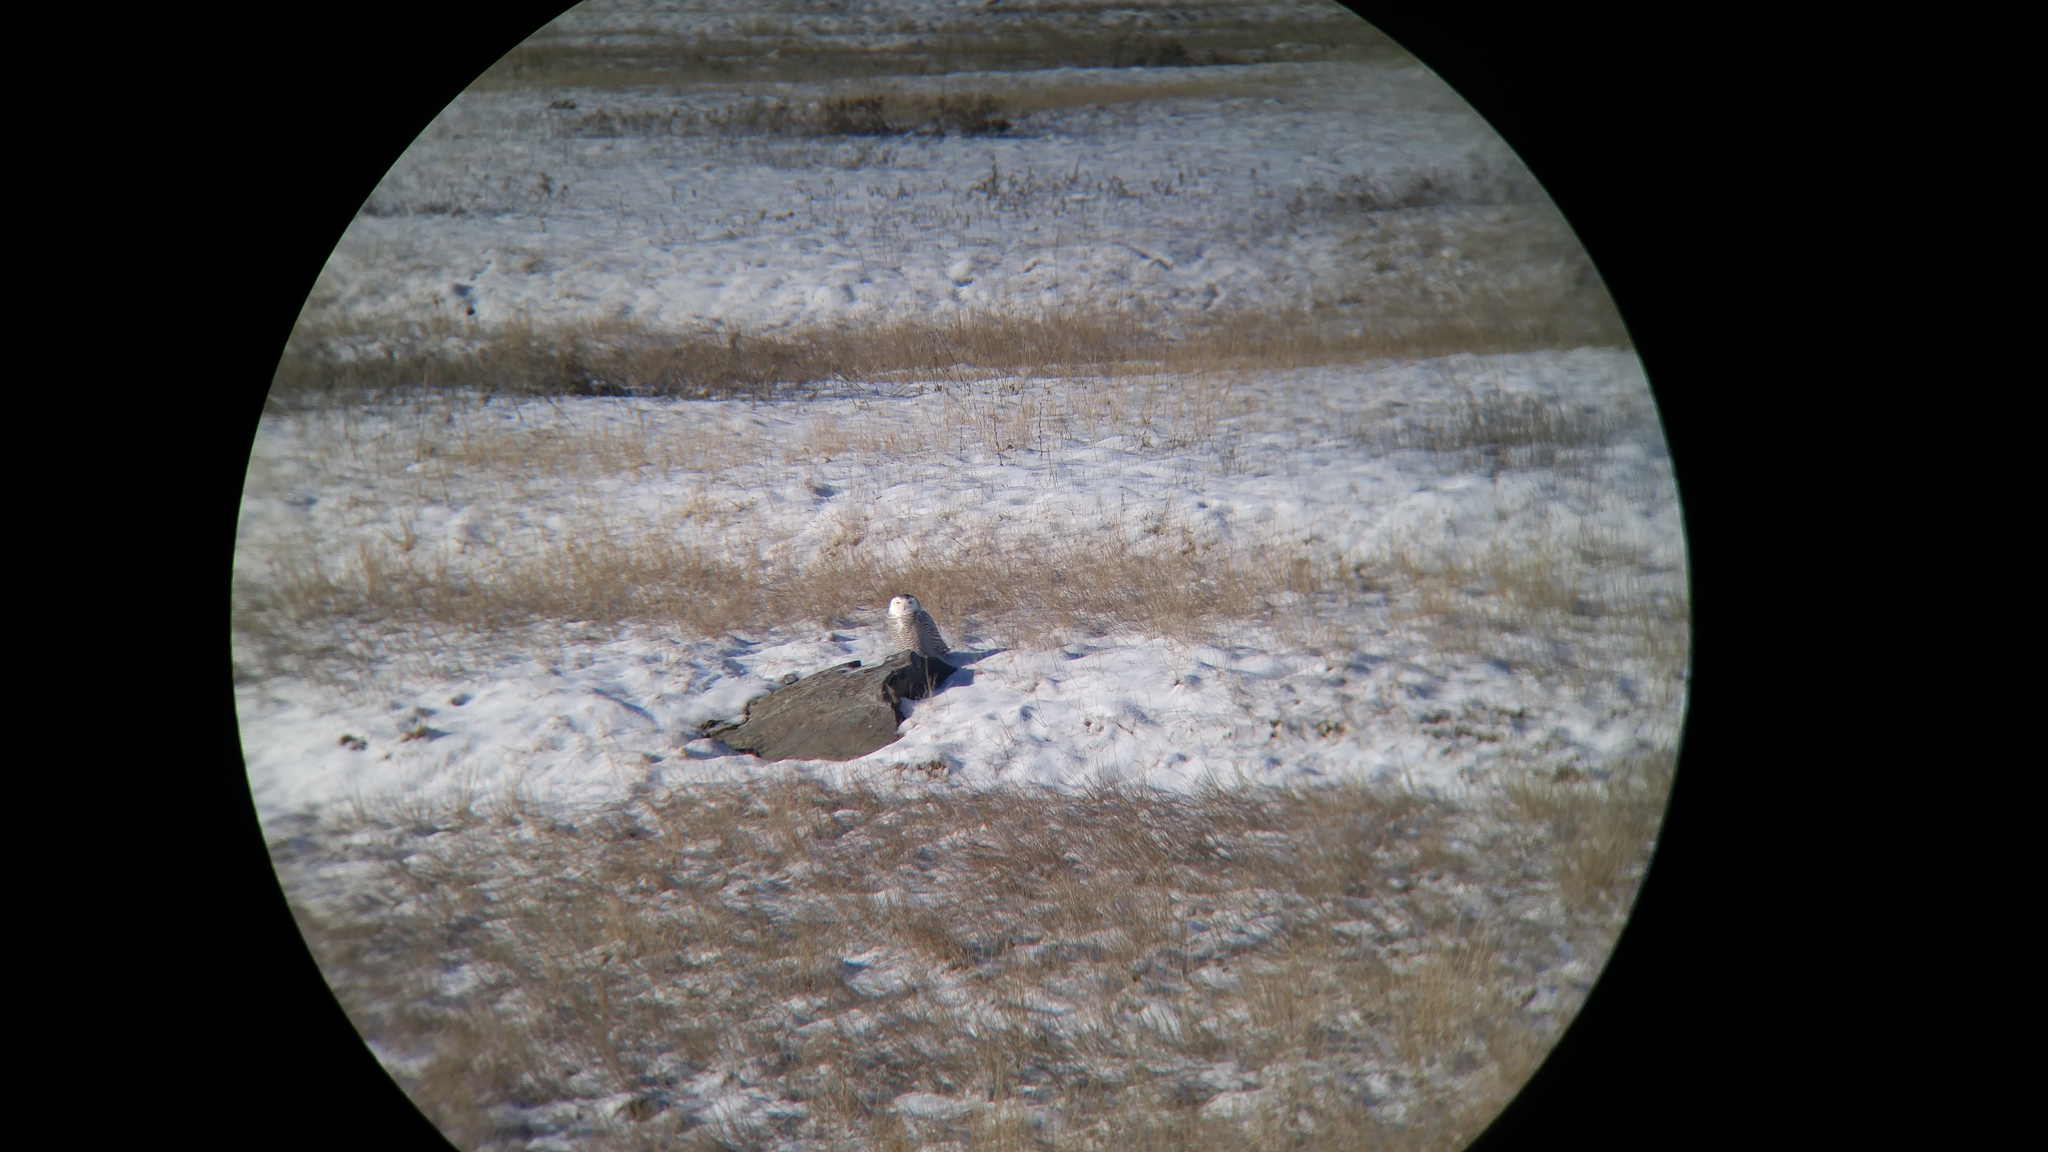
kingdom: Animalia
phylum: Chordata
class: Aves
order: Strigiformes
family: Strigidae
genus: Bubo
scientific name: Bubo scandiacus
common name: Snowy owl
